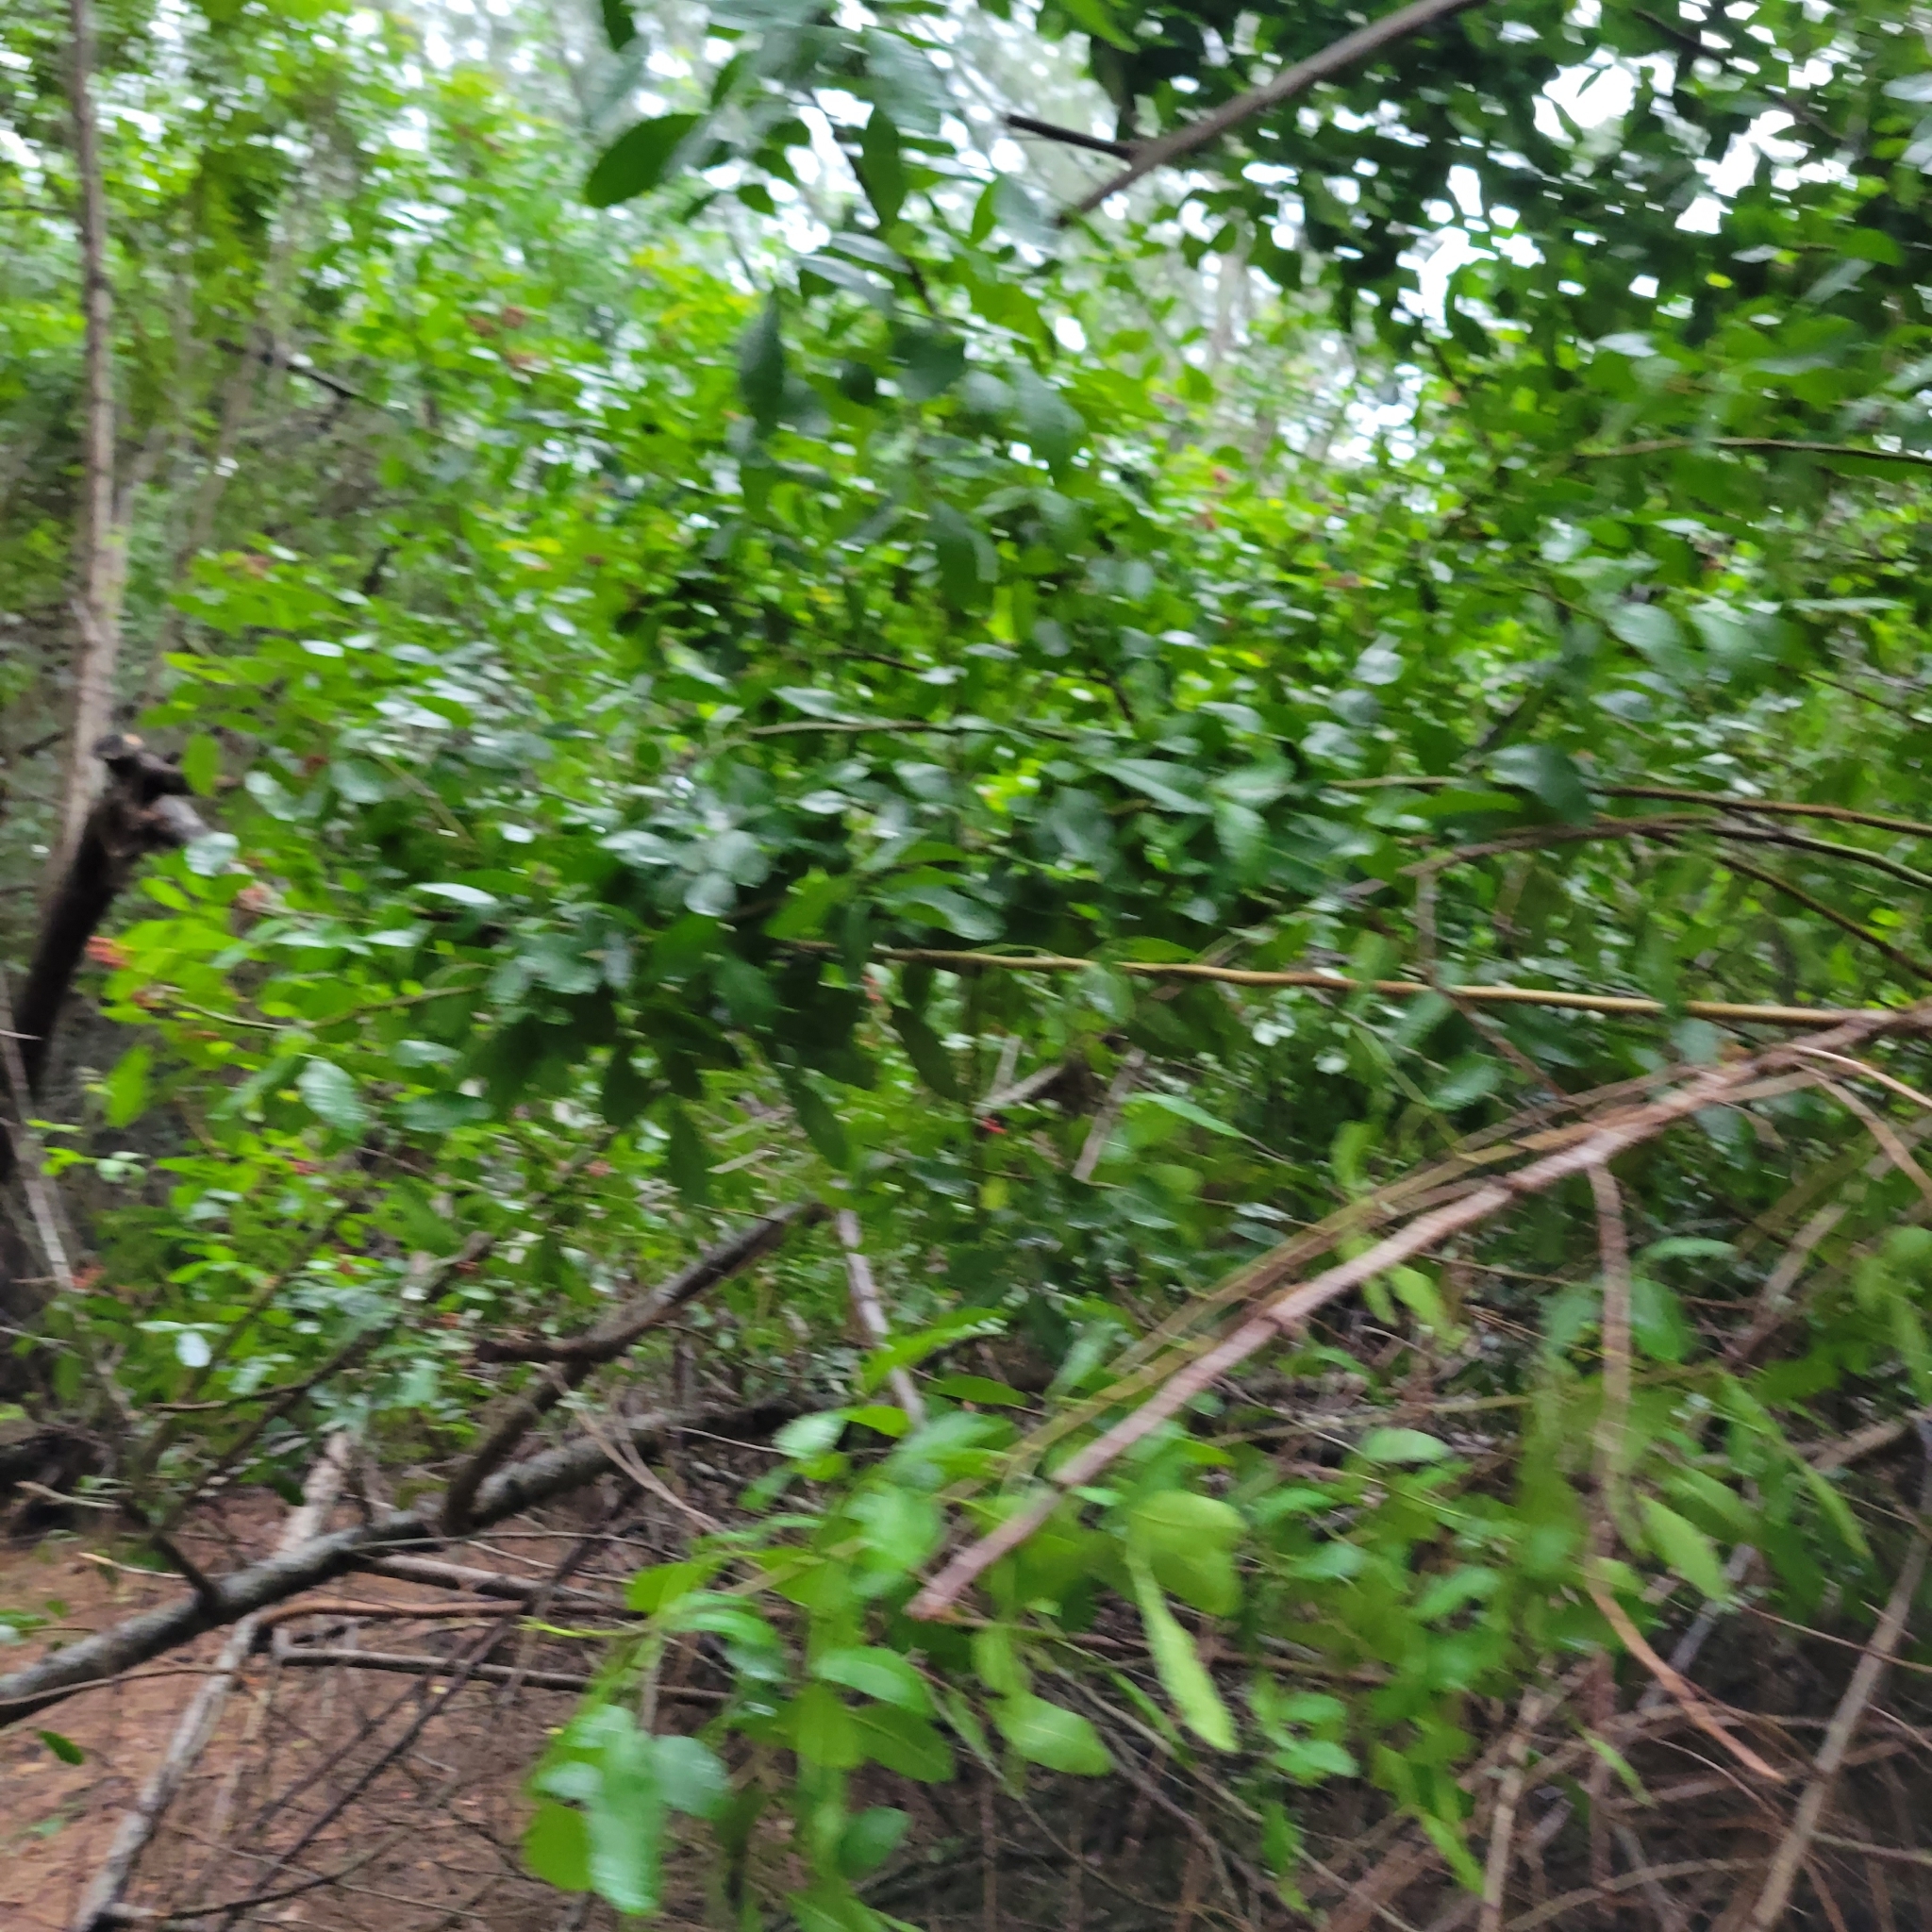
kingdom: Plantae
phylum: Tracheophyta
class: Magnoliopsida
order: Sapindales
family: Anacardiaceae
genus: Schinus
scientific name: Schinus terebinthifolia
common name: Brazilian peppertree
